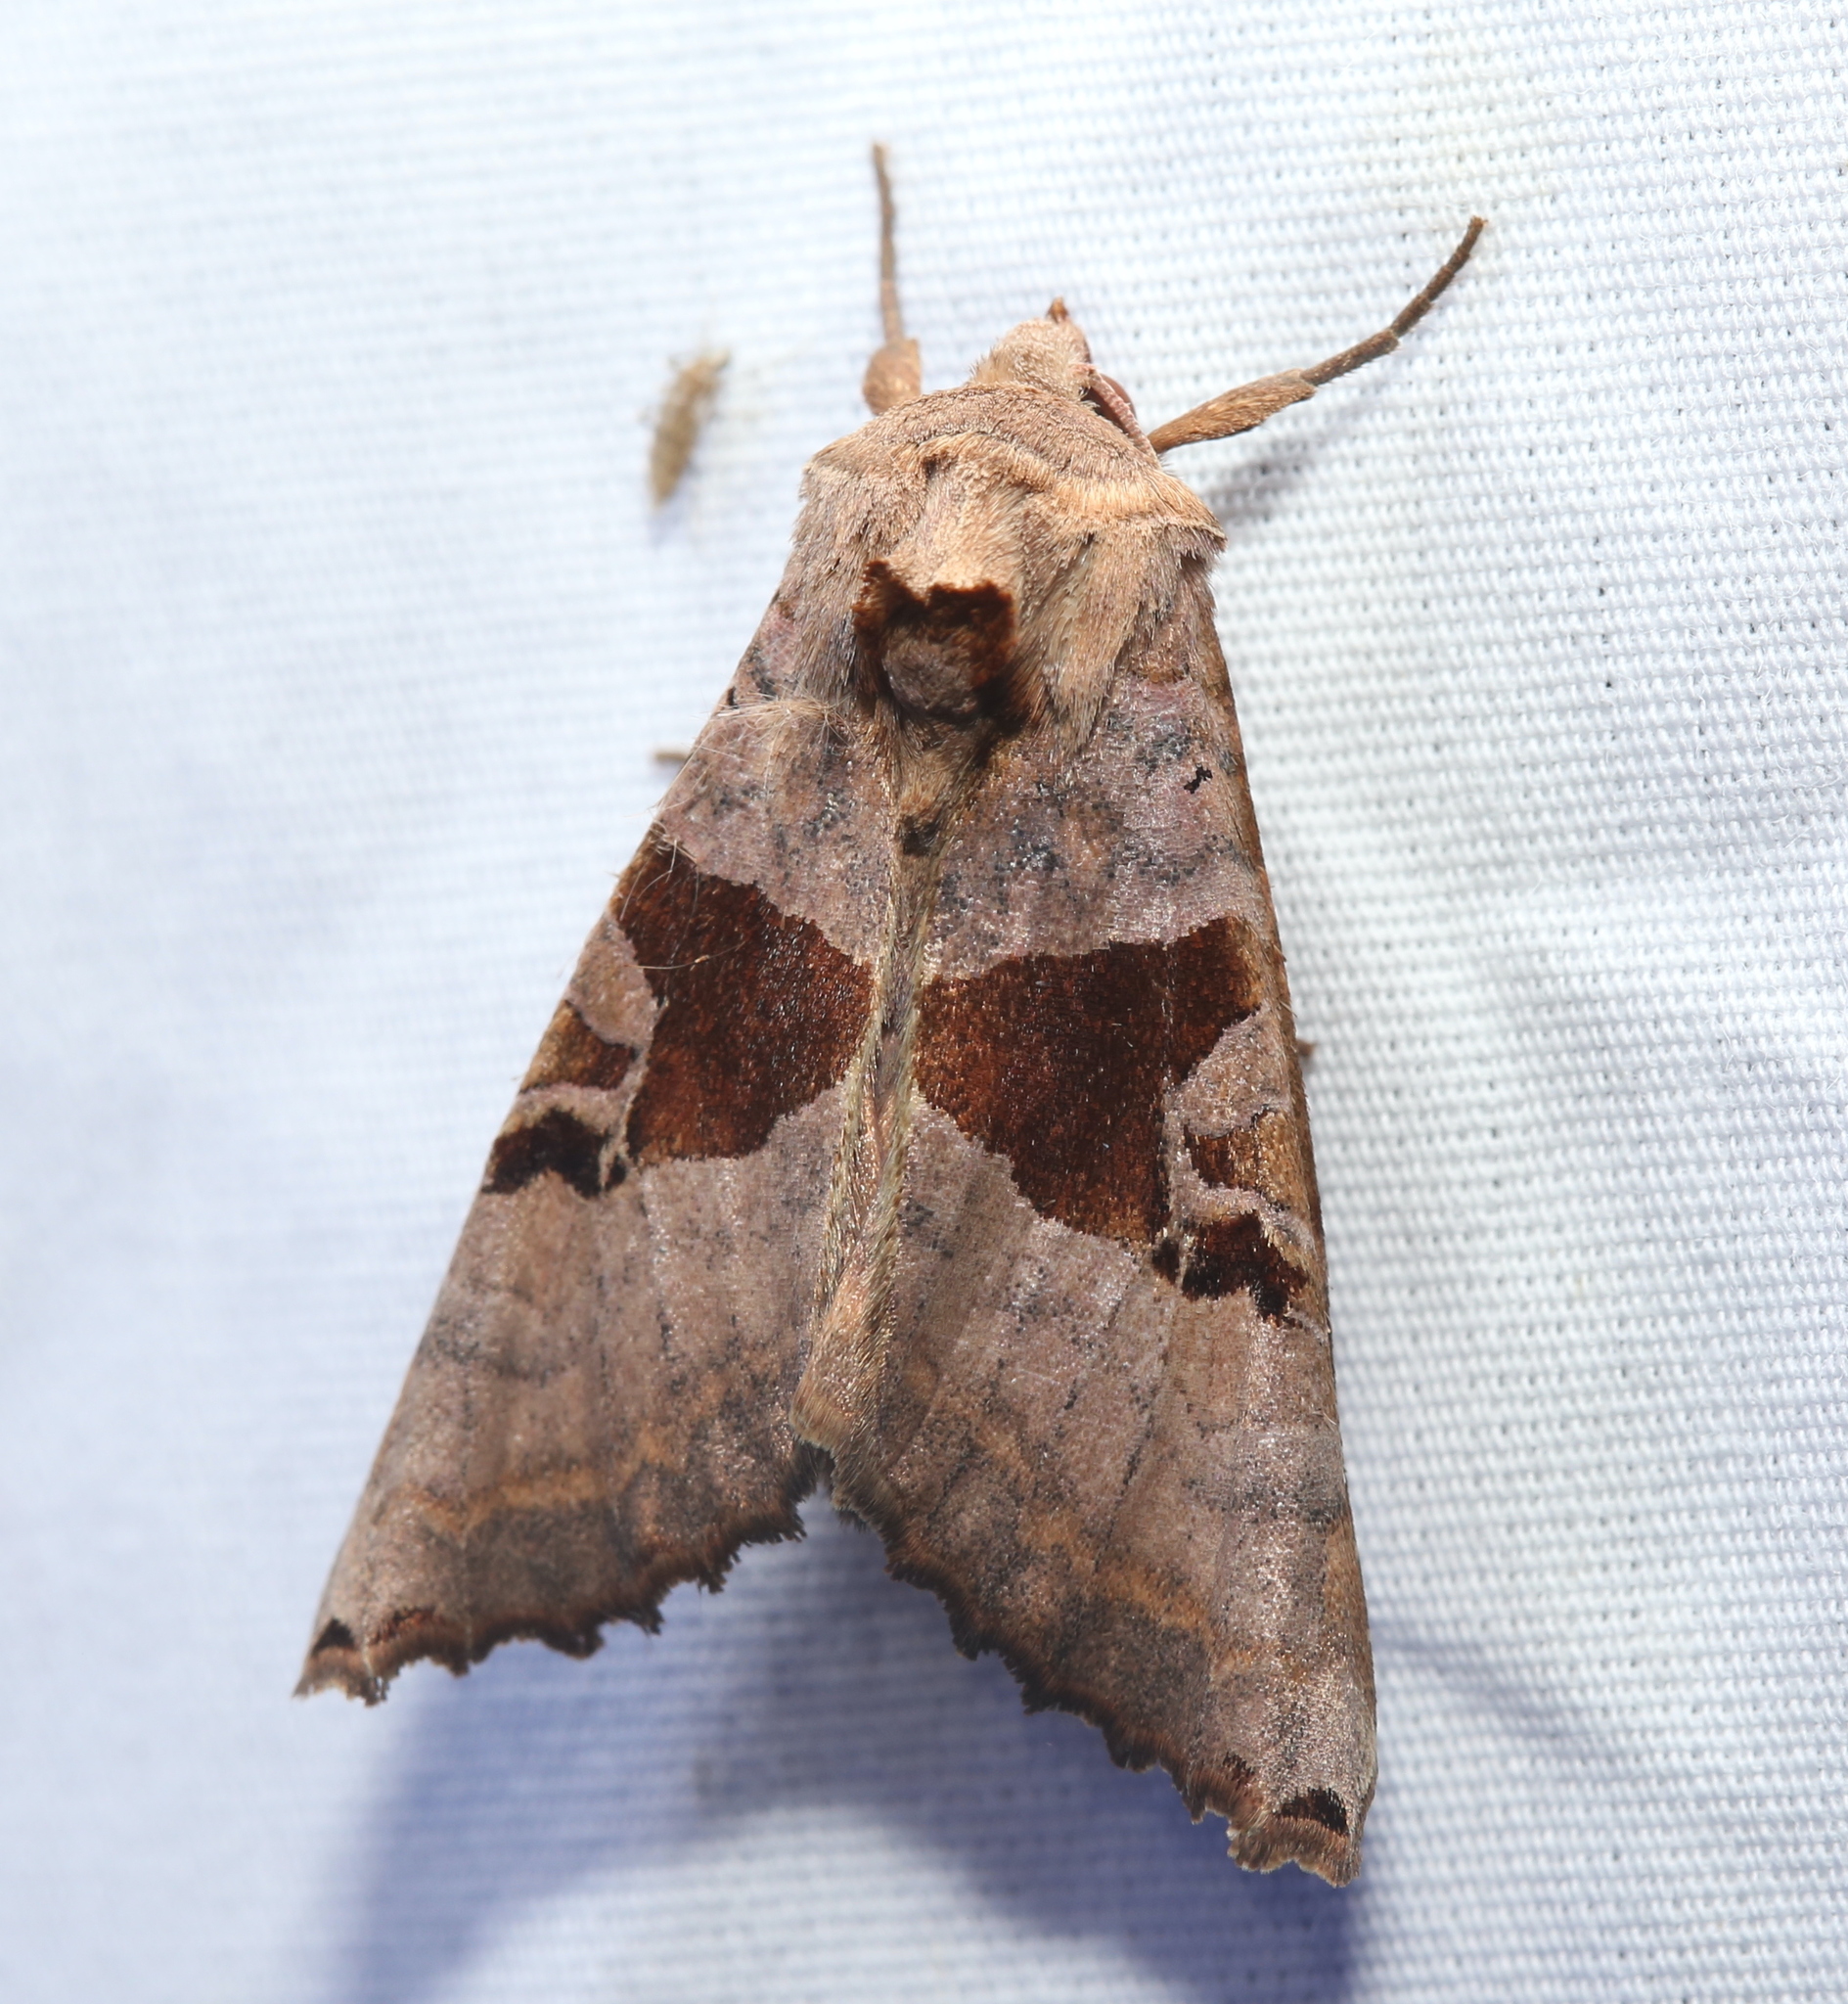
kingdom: Animalia
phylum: Arthropoda
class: Insecta
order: Lepidoptera
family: Noctuidae
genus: Phlogophora
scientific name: Phlogophora periculosa
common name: Brown angle shades
